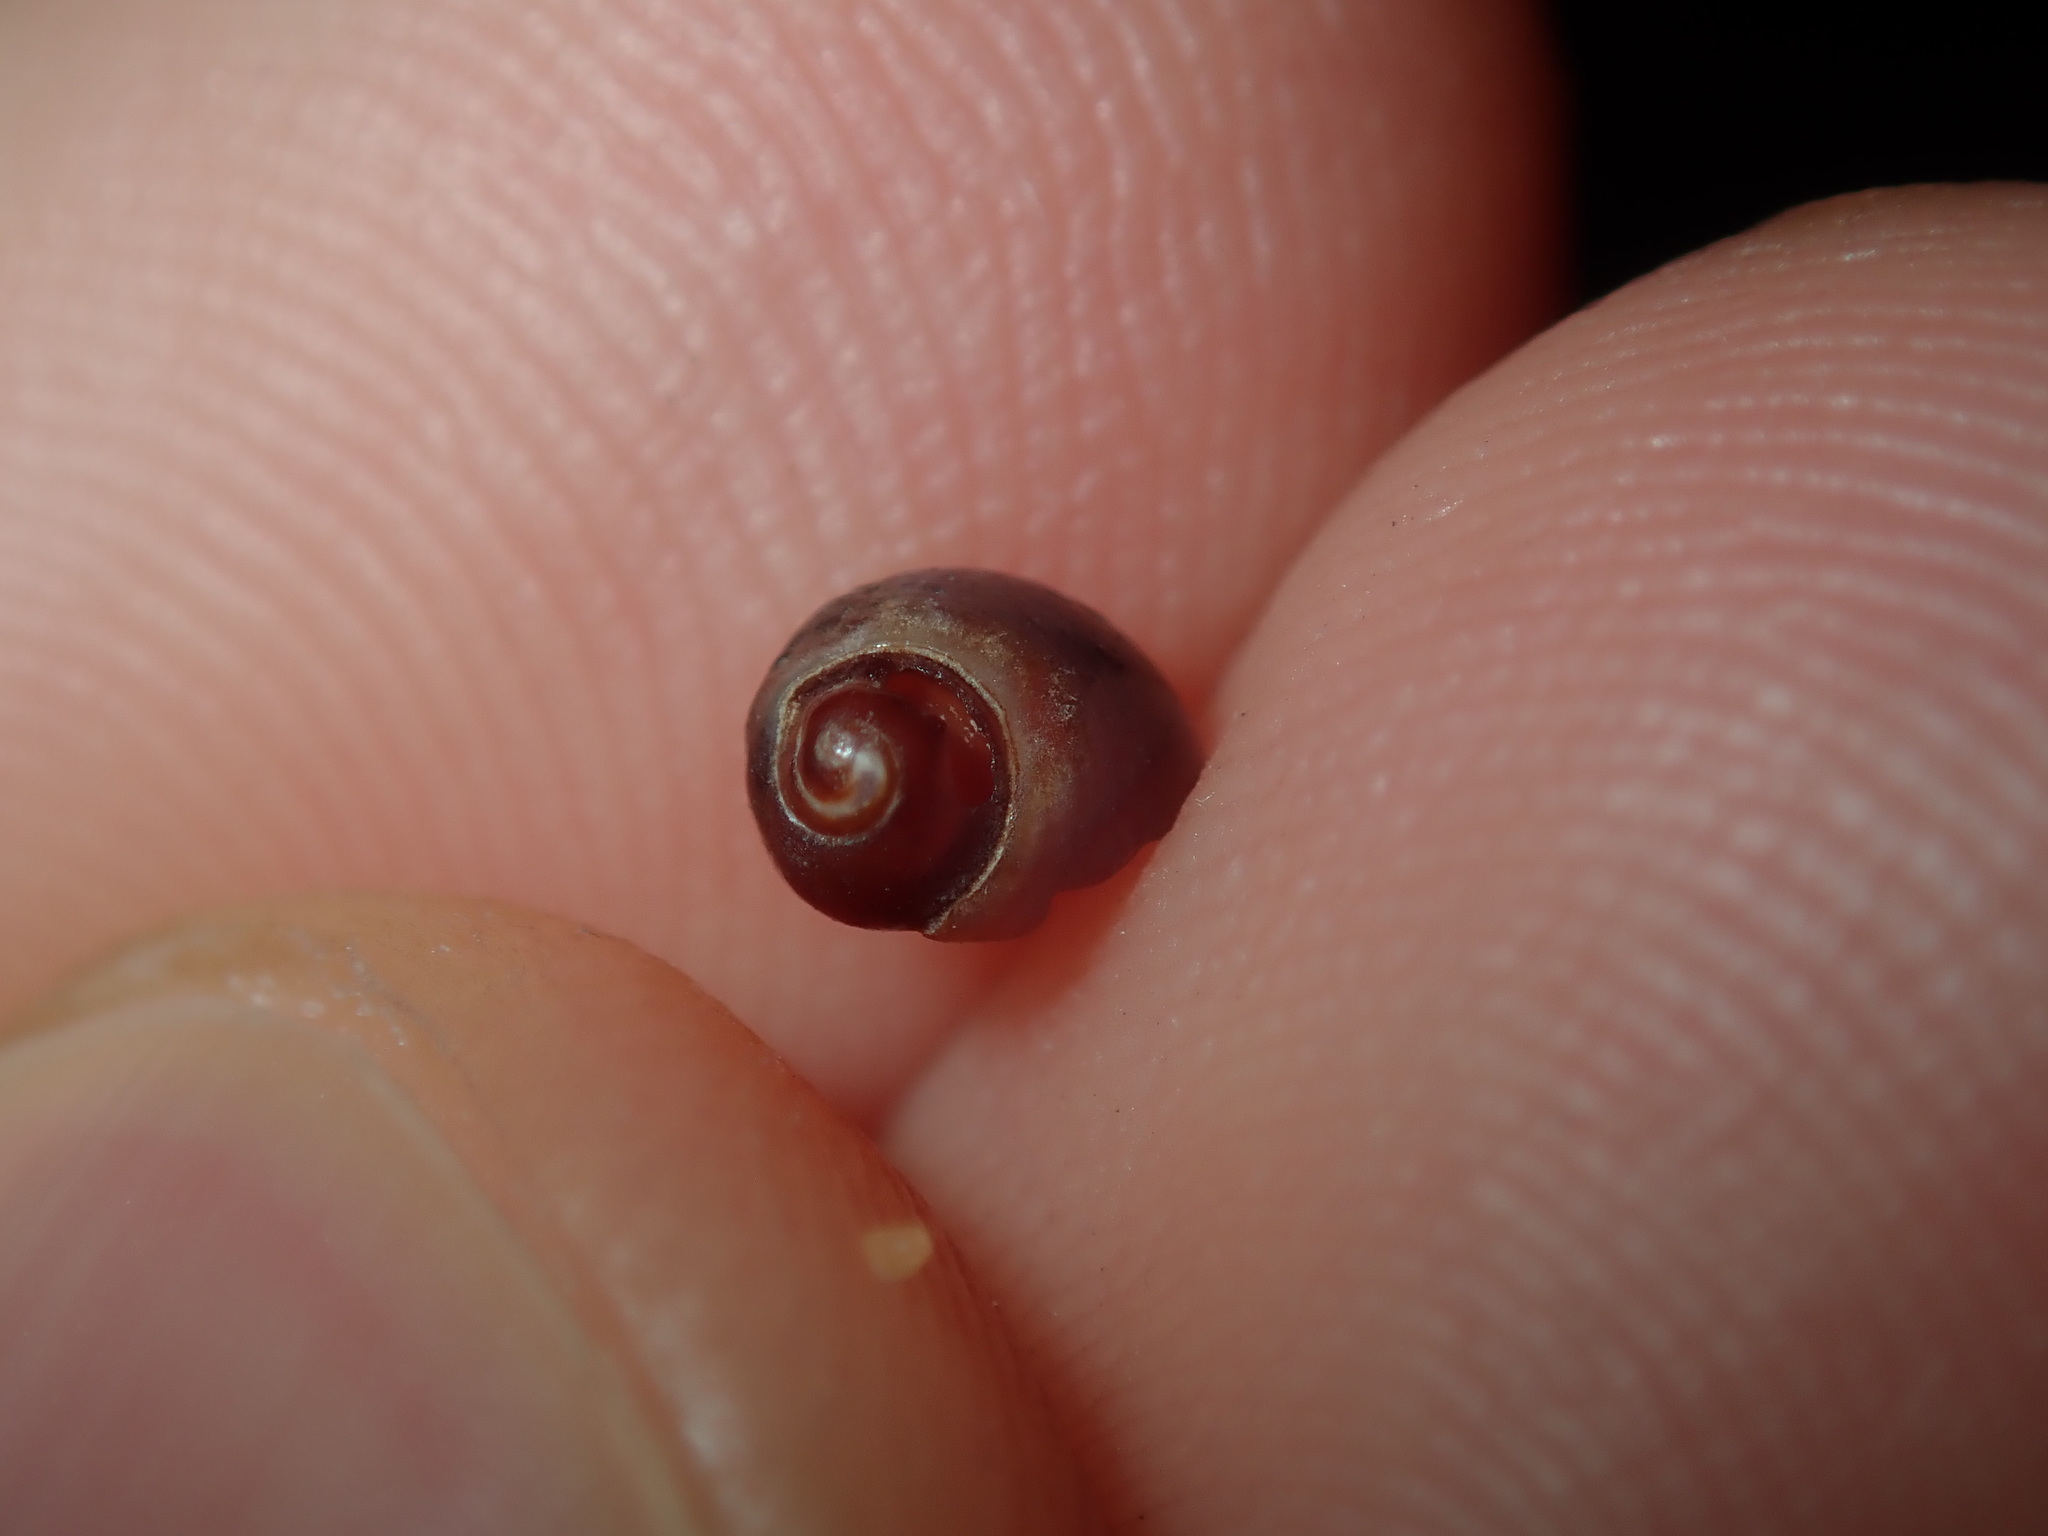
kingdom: Animalia
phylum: Mollusca
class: Gastropoda
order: Littorinimorpha
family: Littorinidae
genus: Afrolittorina
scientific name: Afrolittorina acutispira
